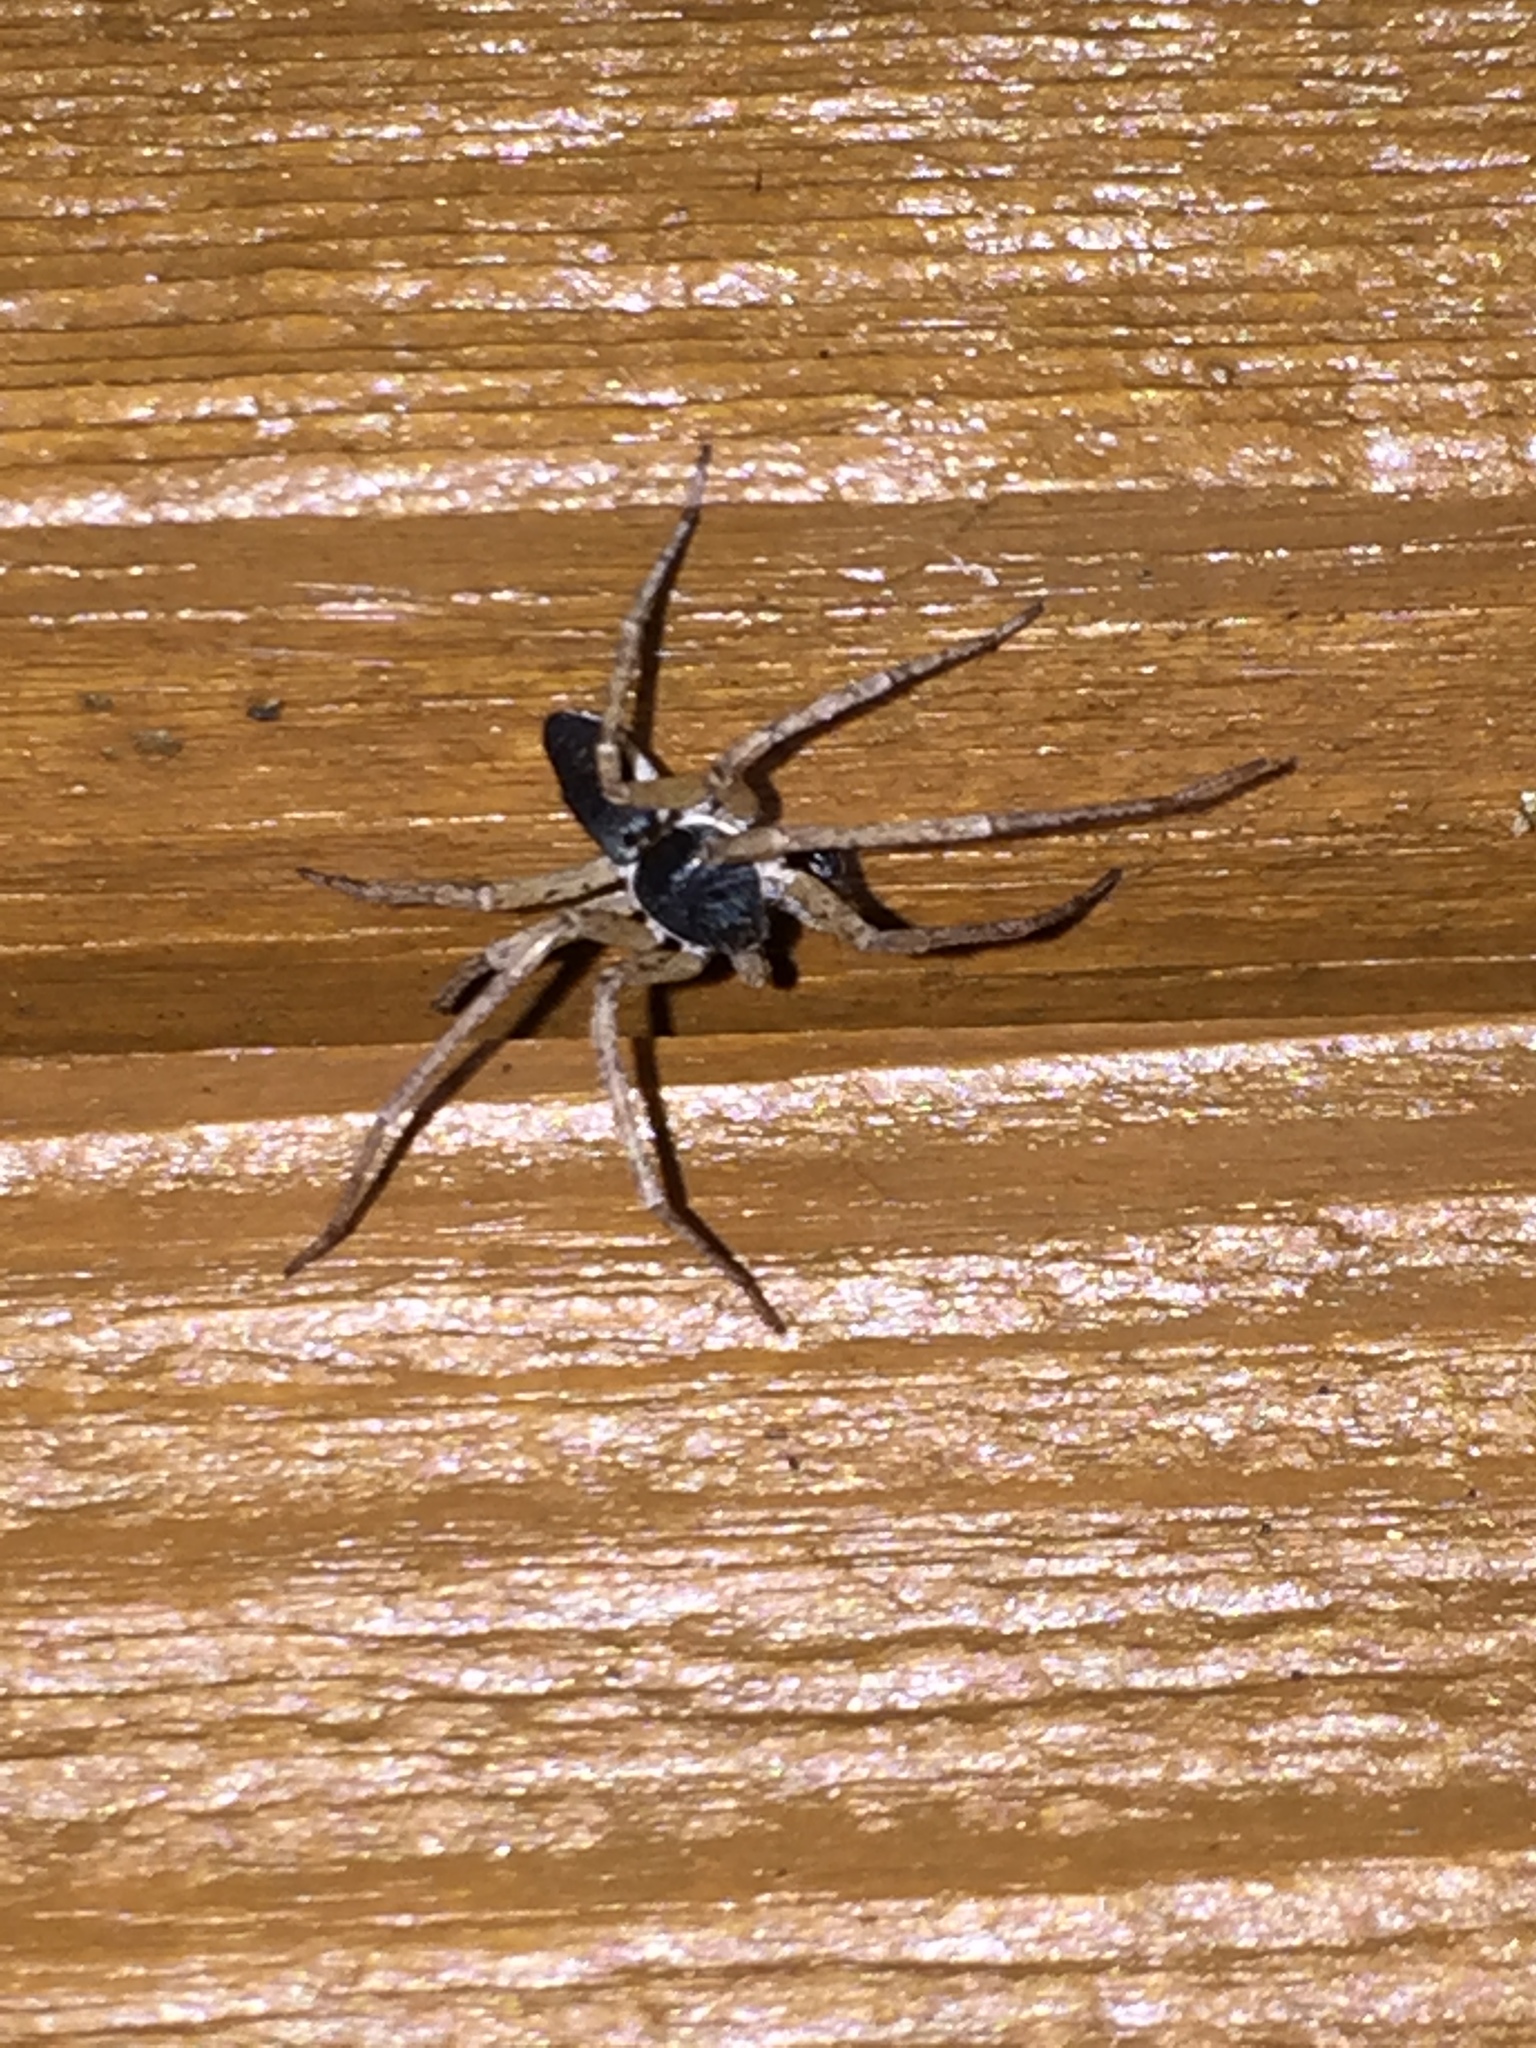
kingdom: Animalia
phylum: Arthropoda
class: Arachnida
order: Araneae
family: Philodromidae
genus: Philodromus
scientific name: Philodromus dispar
